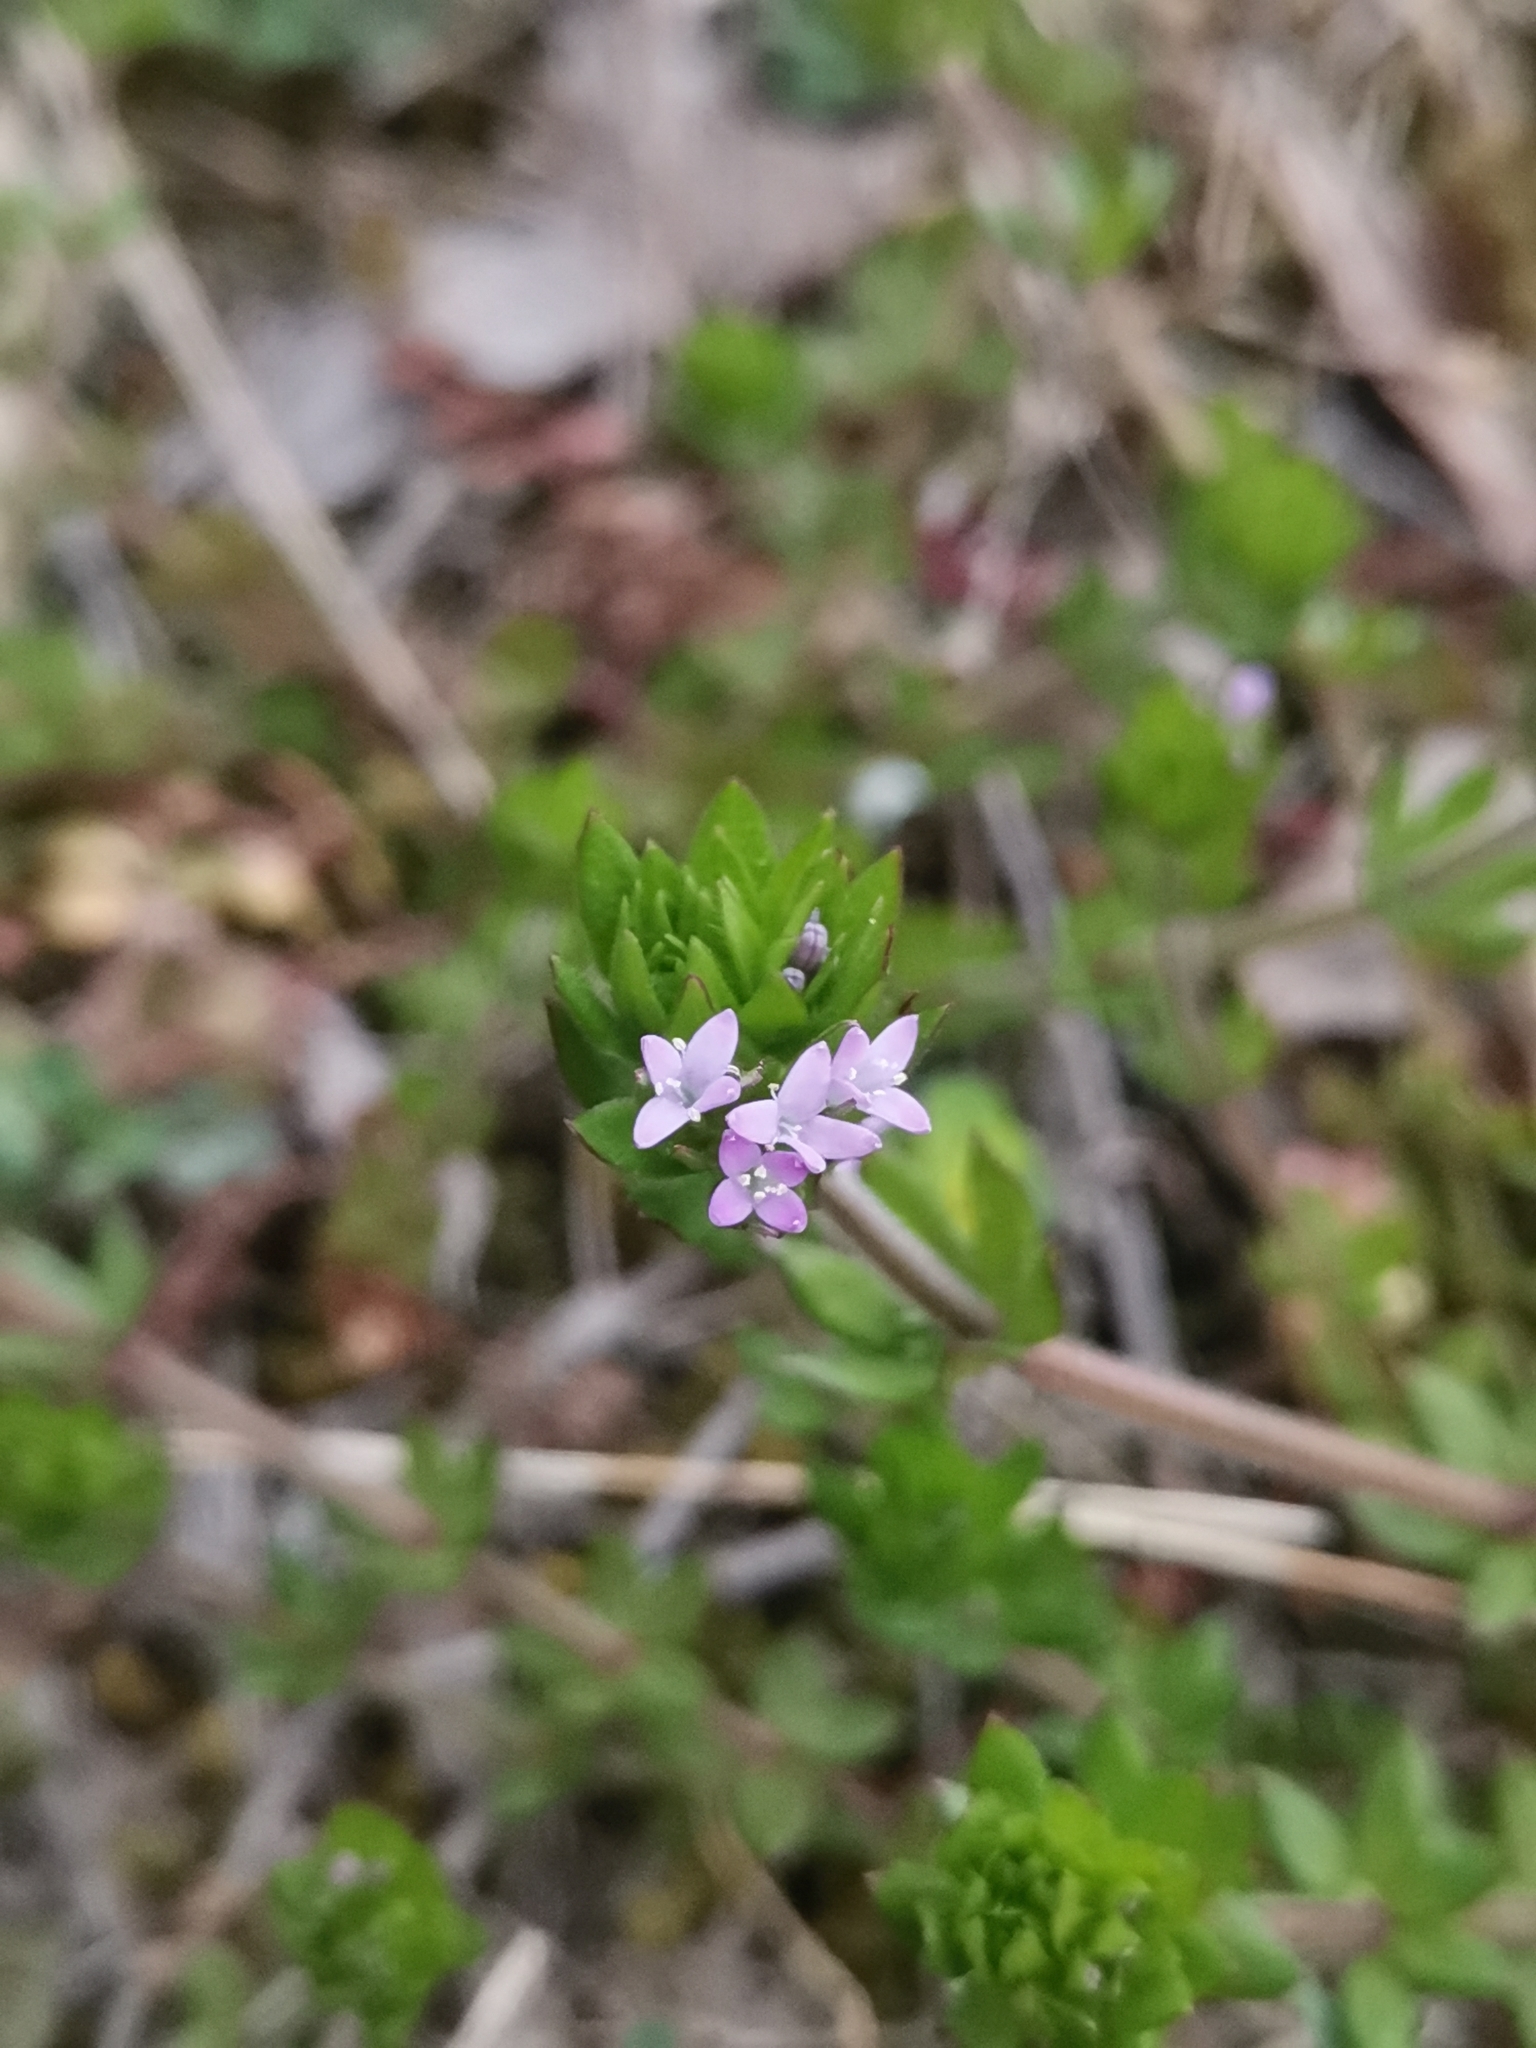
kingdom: Plantae
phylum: Tracheophyta
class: Magnoliopsida
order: Gentianales
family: Rubiaceae
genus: Sherardia
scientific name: Sherardia arvensis
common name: Field madder
